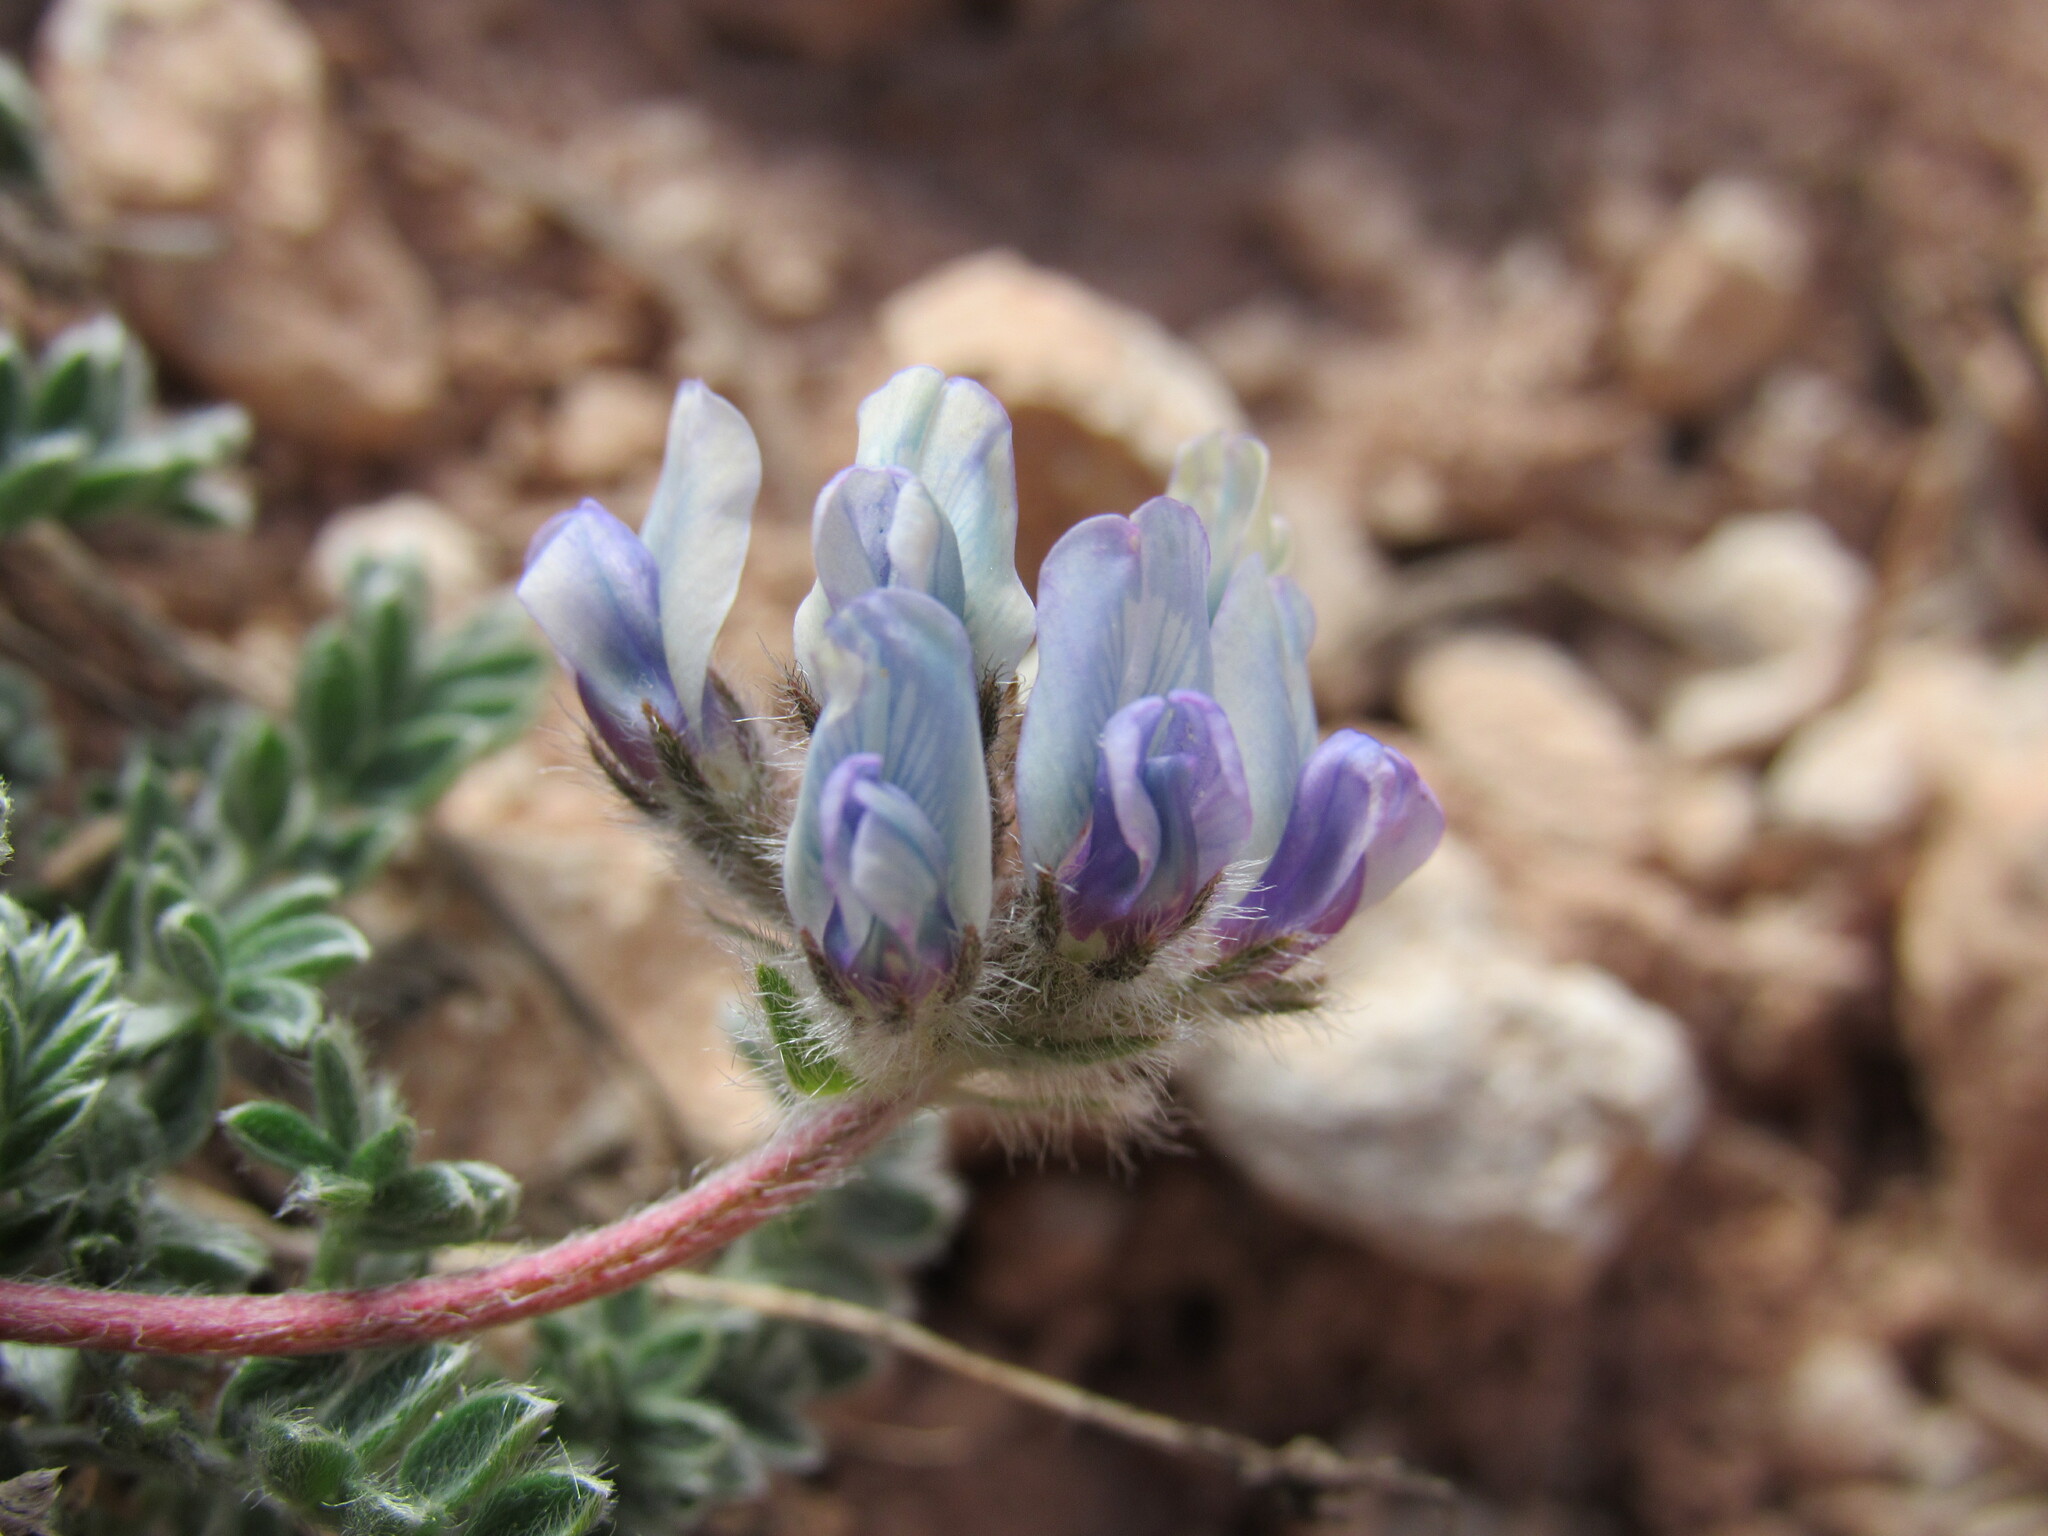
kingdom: Plantae
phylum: Tracheophyta
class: Magnoliopsida
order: Fabales
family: Fabaceae
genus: Oxytropis
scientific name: Oxytropis oreophila
